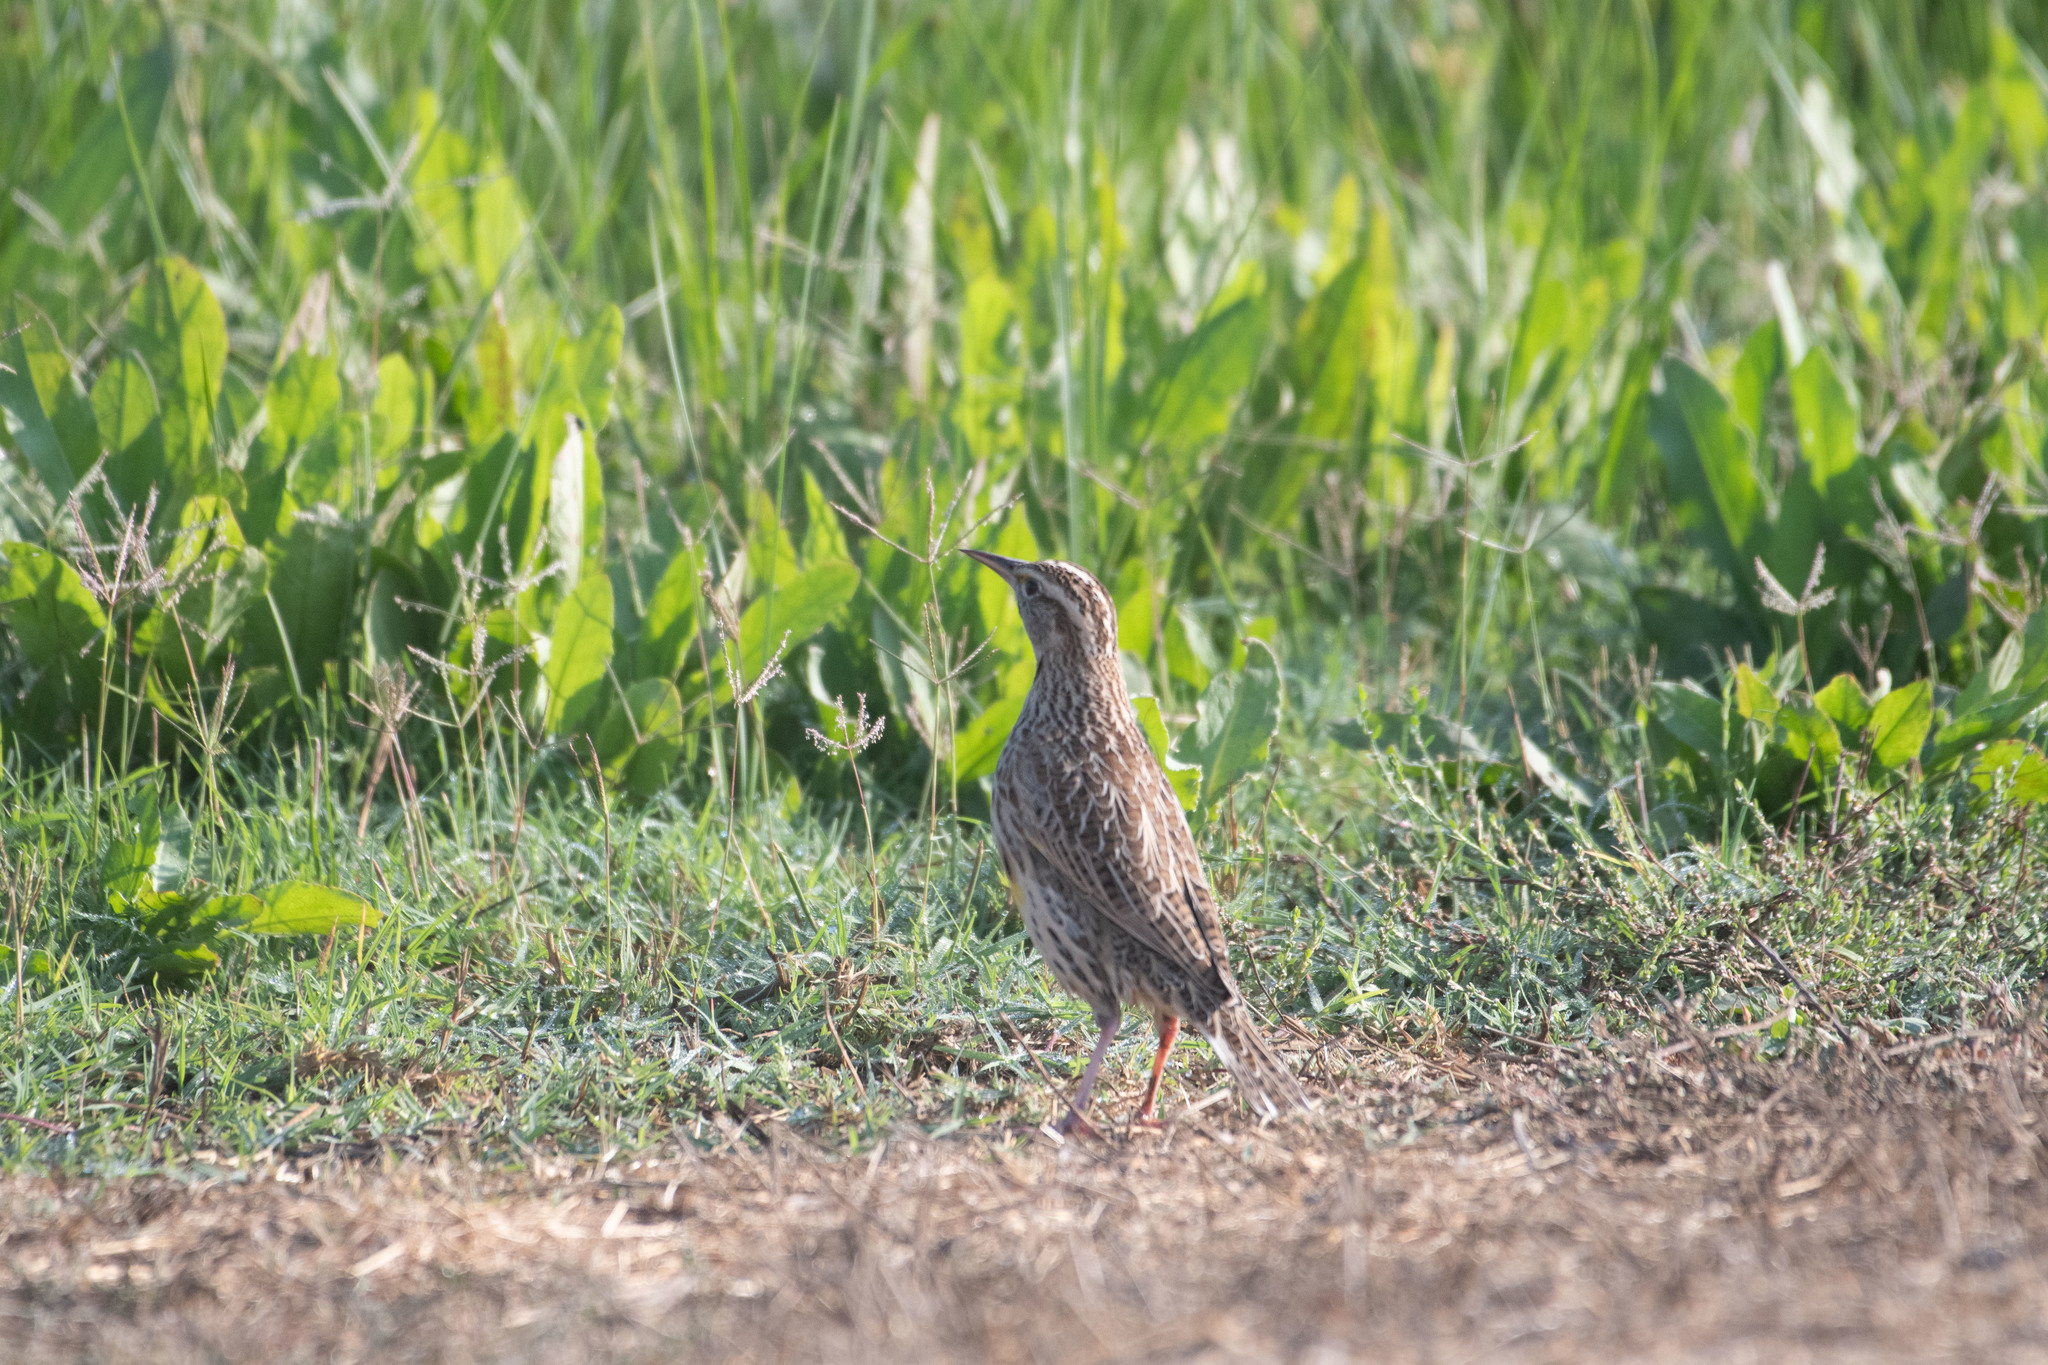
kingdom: Animalia
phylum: Chordata
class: Aves
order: Passeriformes
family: Icteridae
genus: Sturnella
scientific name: Sturnella neglecta
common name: Western meadowlark
